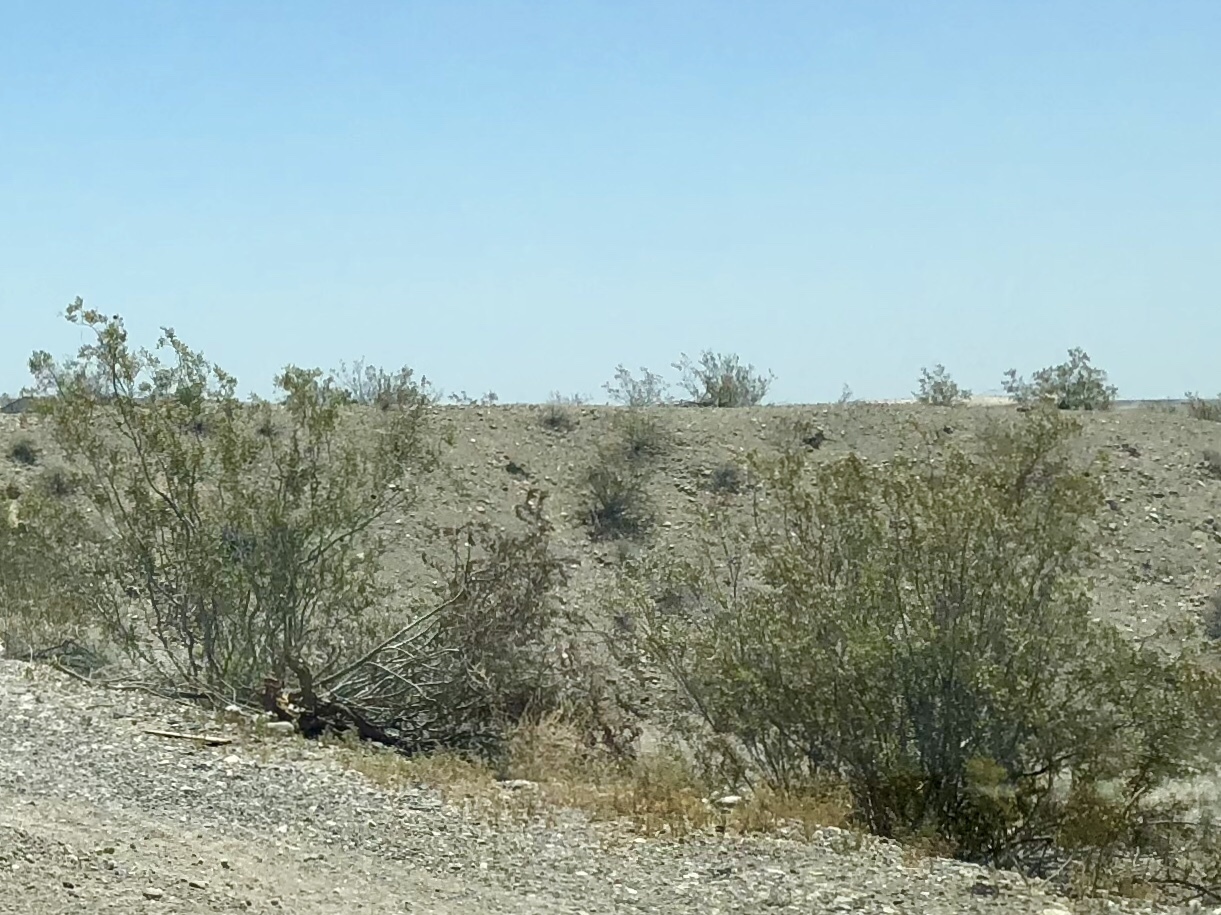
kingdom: Plantae
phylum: Tracheophyta
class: Magnoliopsida
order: Zygophyllales
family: Zygophyllaceae
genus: Larrea
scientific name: Larrea tridentata
